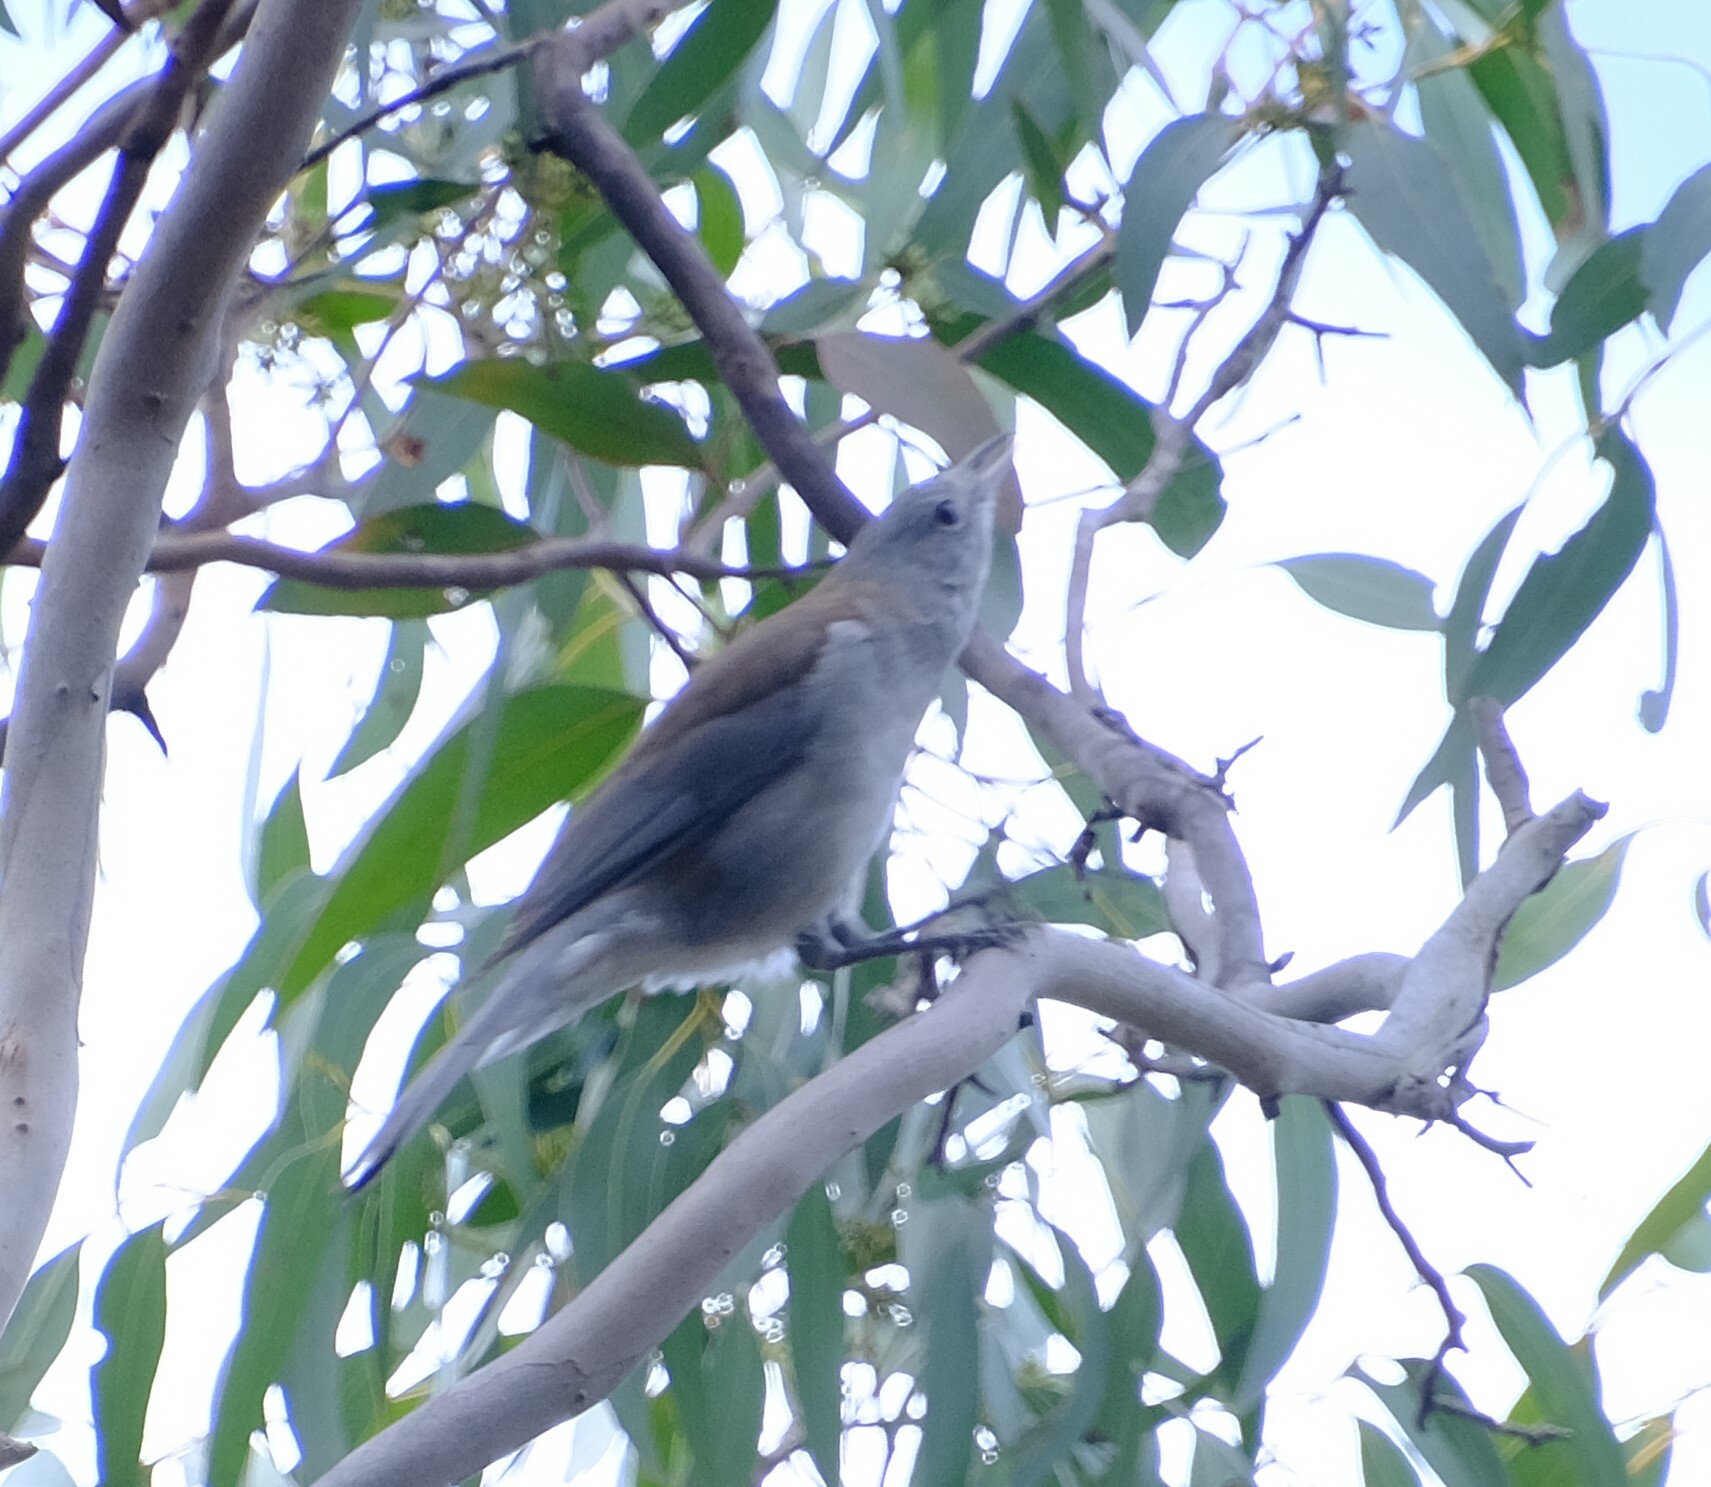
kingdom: Animalia
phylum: Chordata
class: Aves
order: Passeriformes
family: Pachycephalidae
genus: Colluricincla
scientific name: Colluricincla harmonica
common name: Grey shrikethrush
